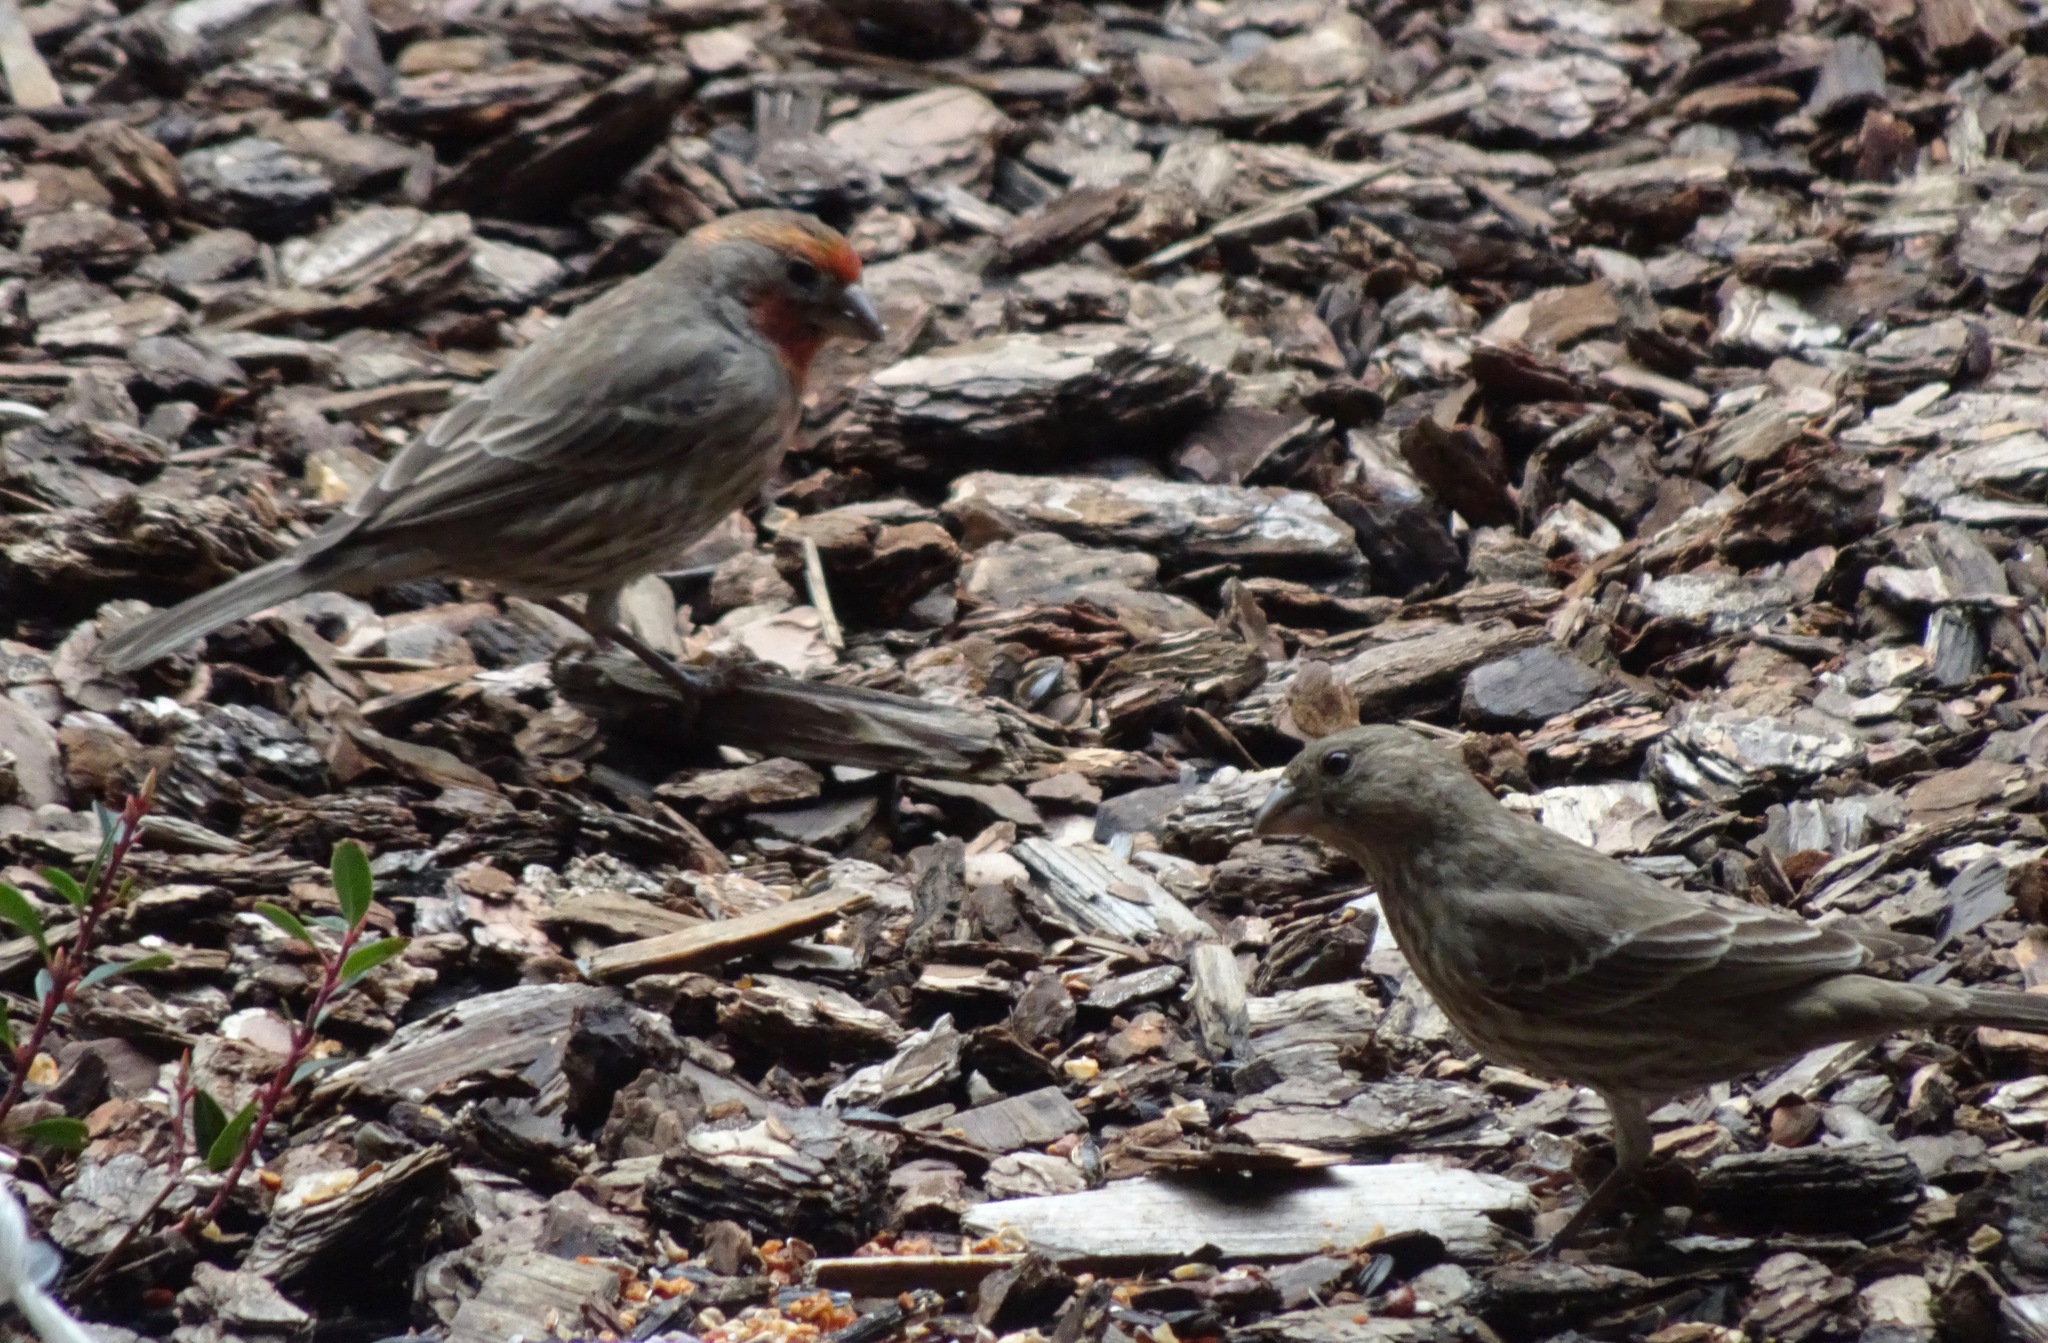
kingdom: Animalia
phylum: Chordata
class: Aves
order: Passeriformes
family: Fringillidae
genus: Haemorhous
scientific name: Haemorhous mexicanus
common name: House finch
